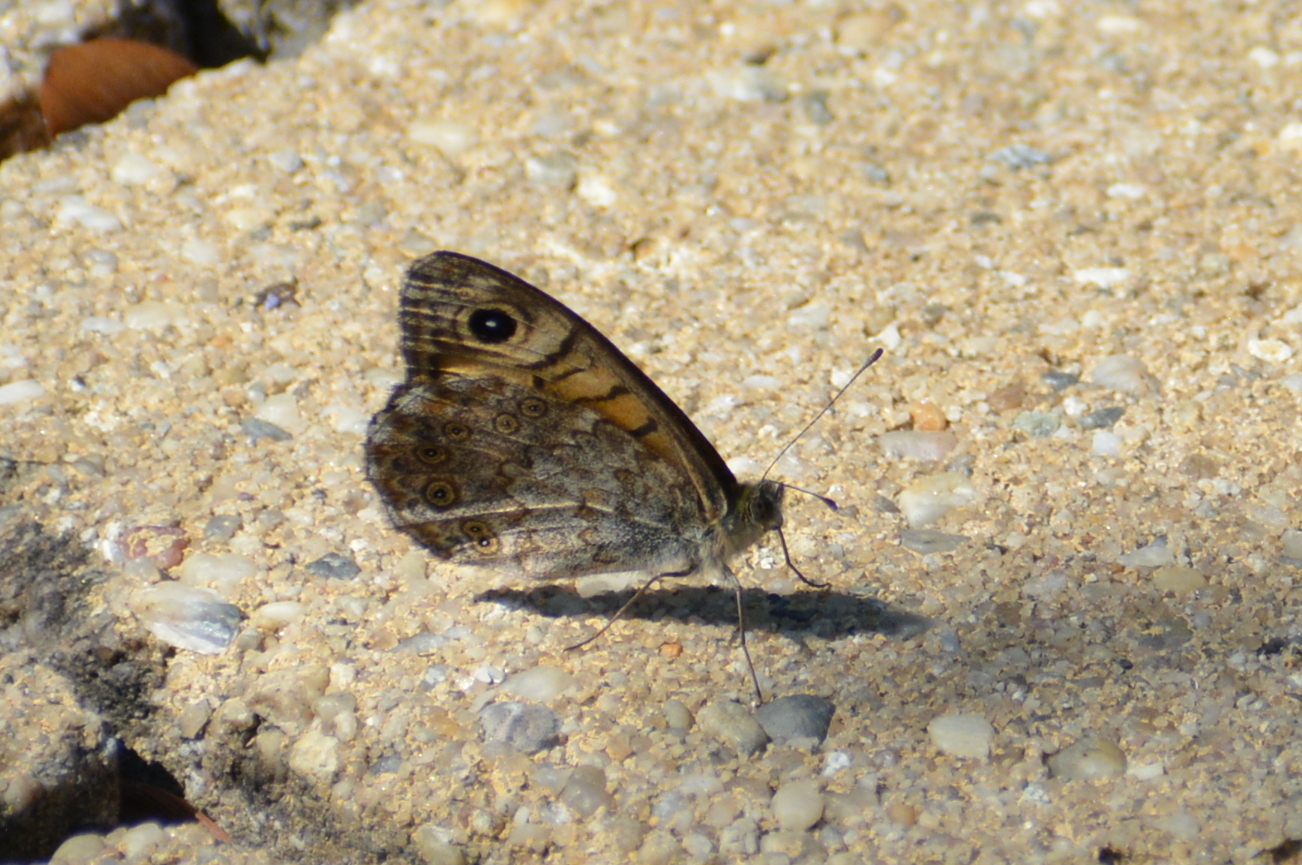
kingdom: Animalia
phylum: Arthropoda
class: Insecta
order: Lepidoptera
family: Nymphalidae
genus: Pararge
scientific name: Pararge Lasiommata megera
